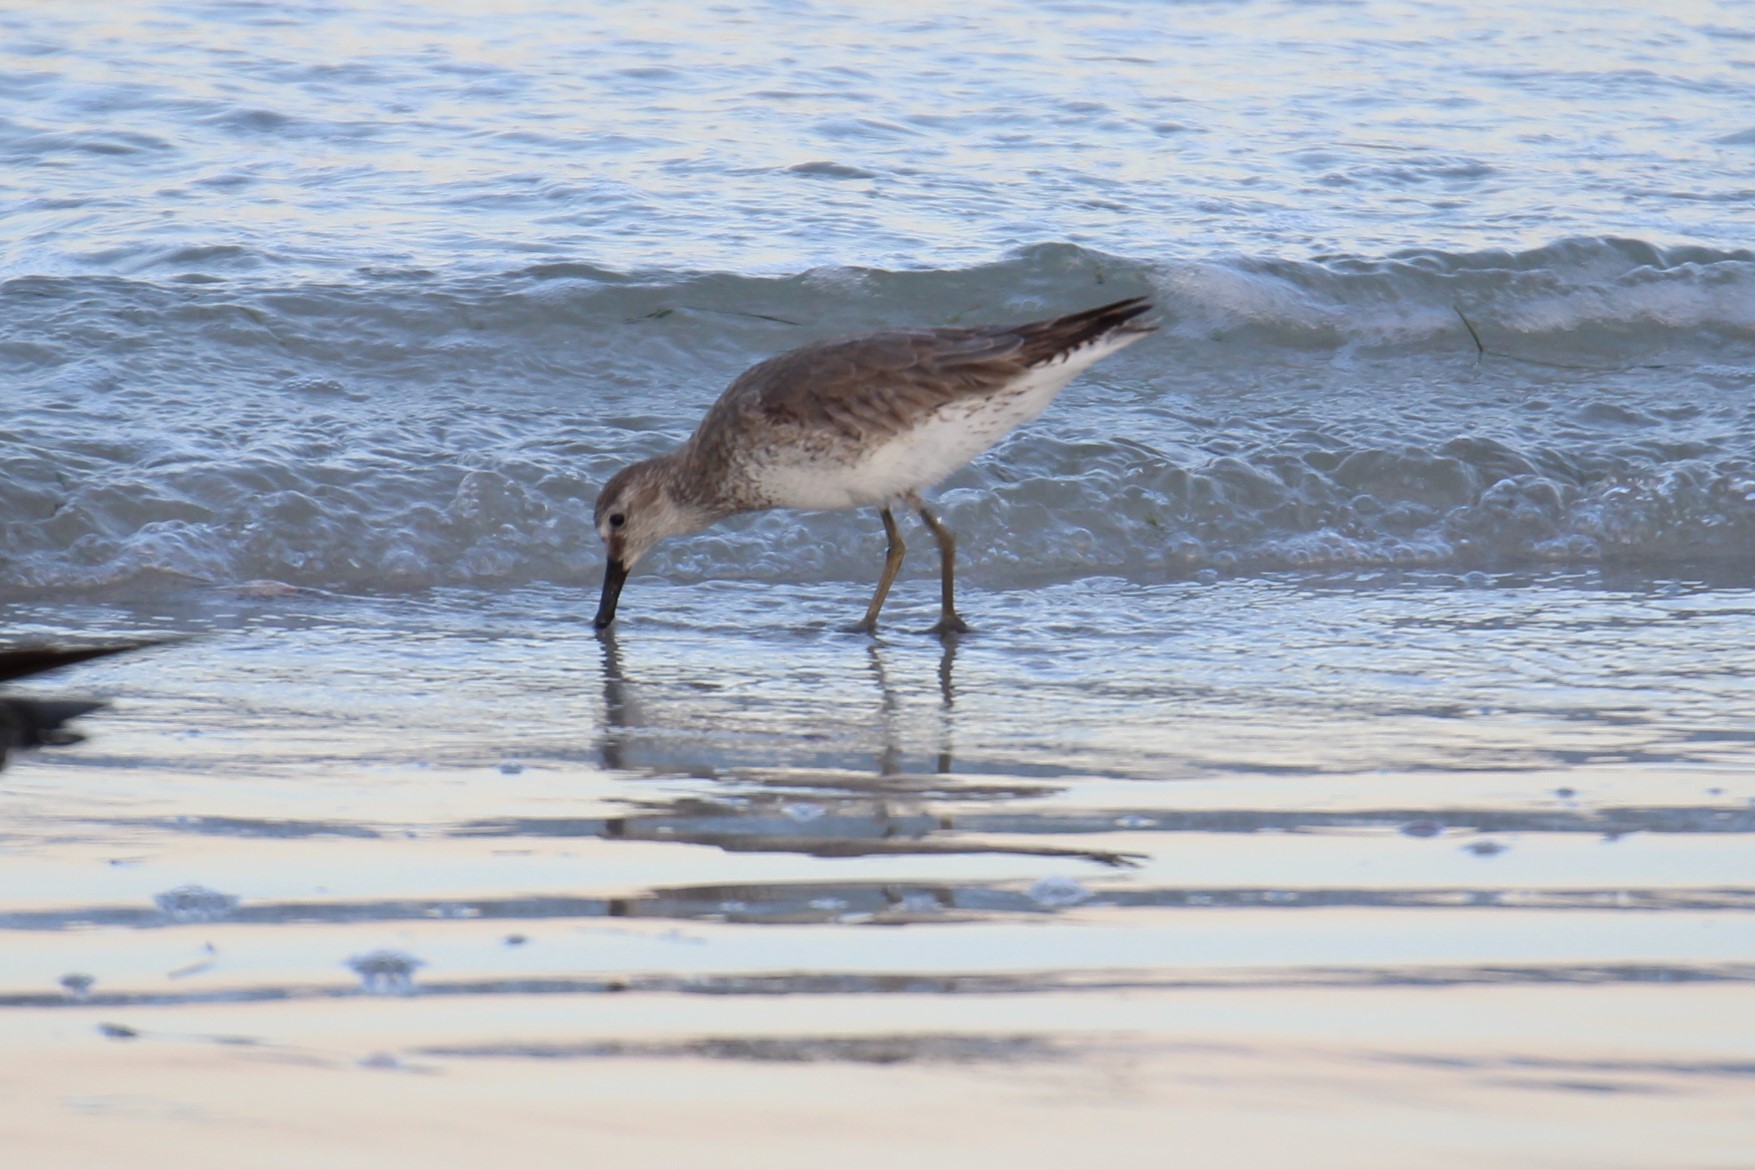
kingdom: Animalia
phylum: Chordata
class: Aves
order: Charadriiformes
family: Scolopacidae
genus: Calidris
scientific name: Calidris canutus
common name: Red knot
